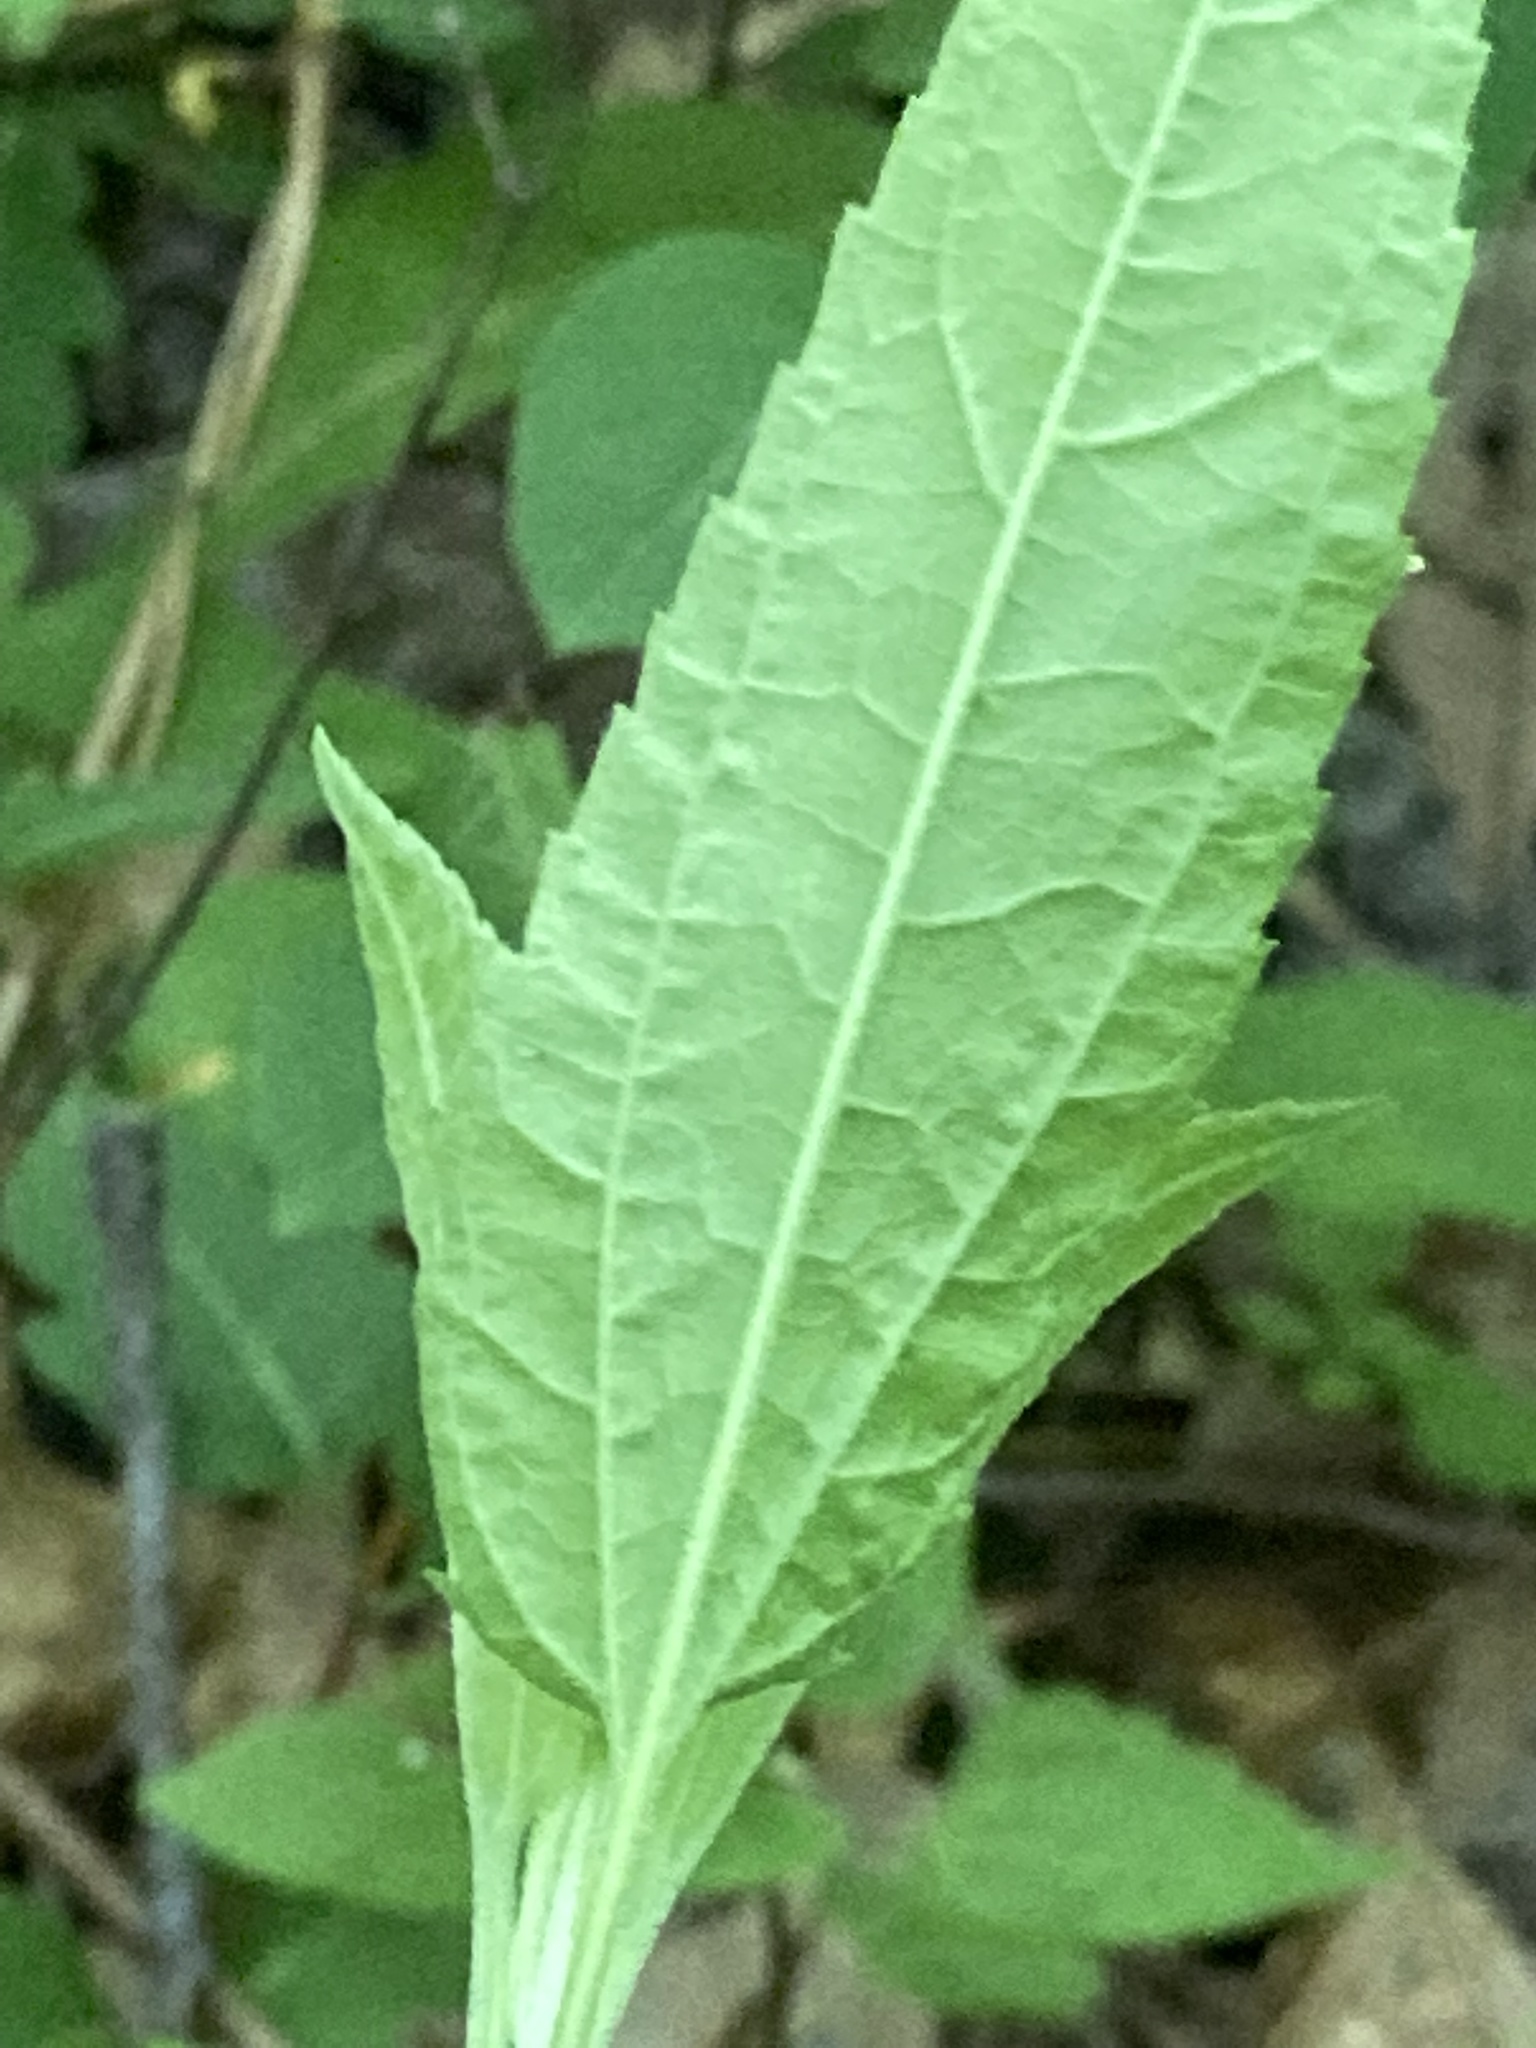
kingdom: Plantae
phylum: Tracheophyta
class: Magnoliopsida
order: Asterales
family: Asteraceae
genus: Eupatorium
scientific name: Eupatorium serotinum
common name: Late boneset
